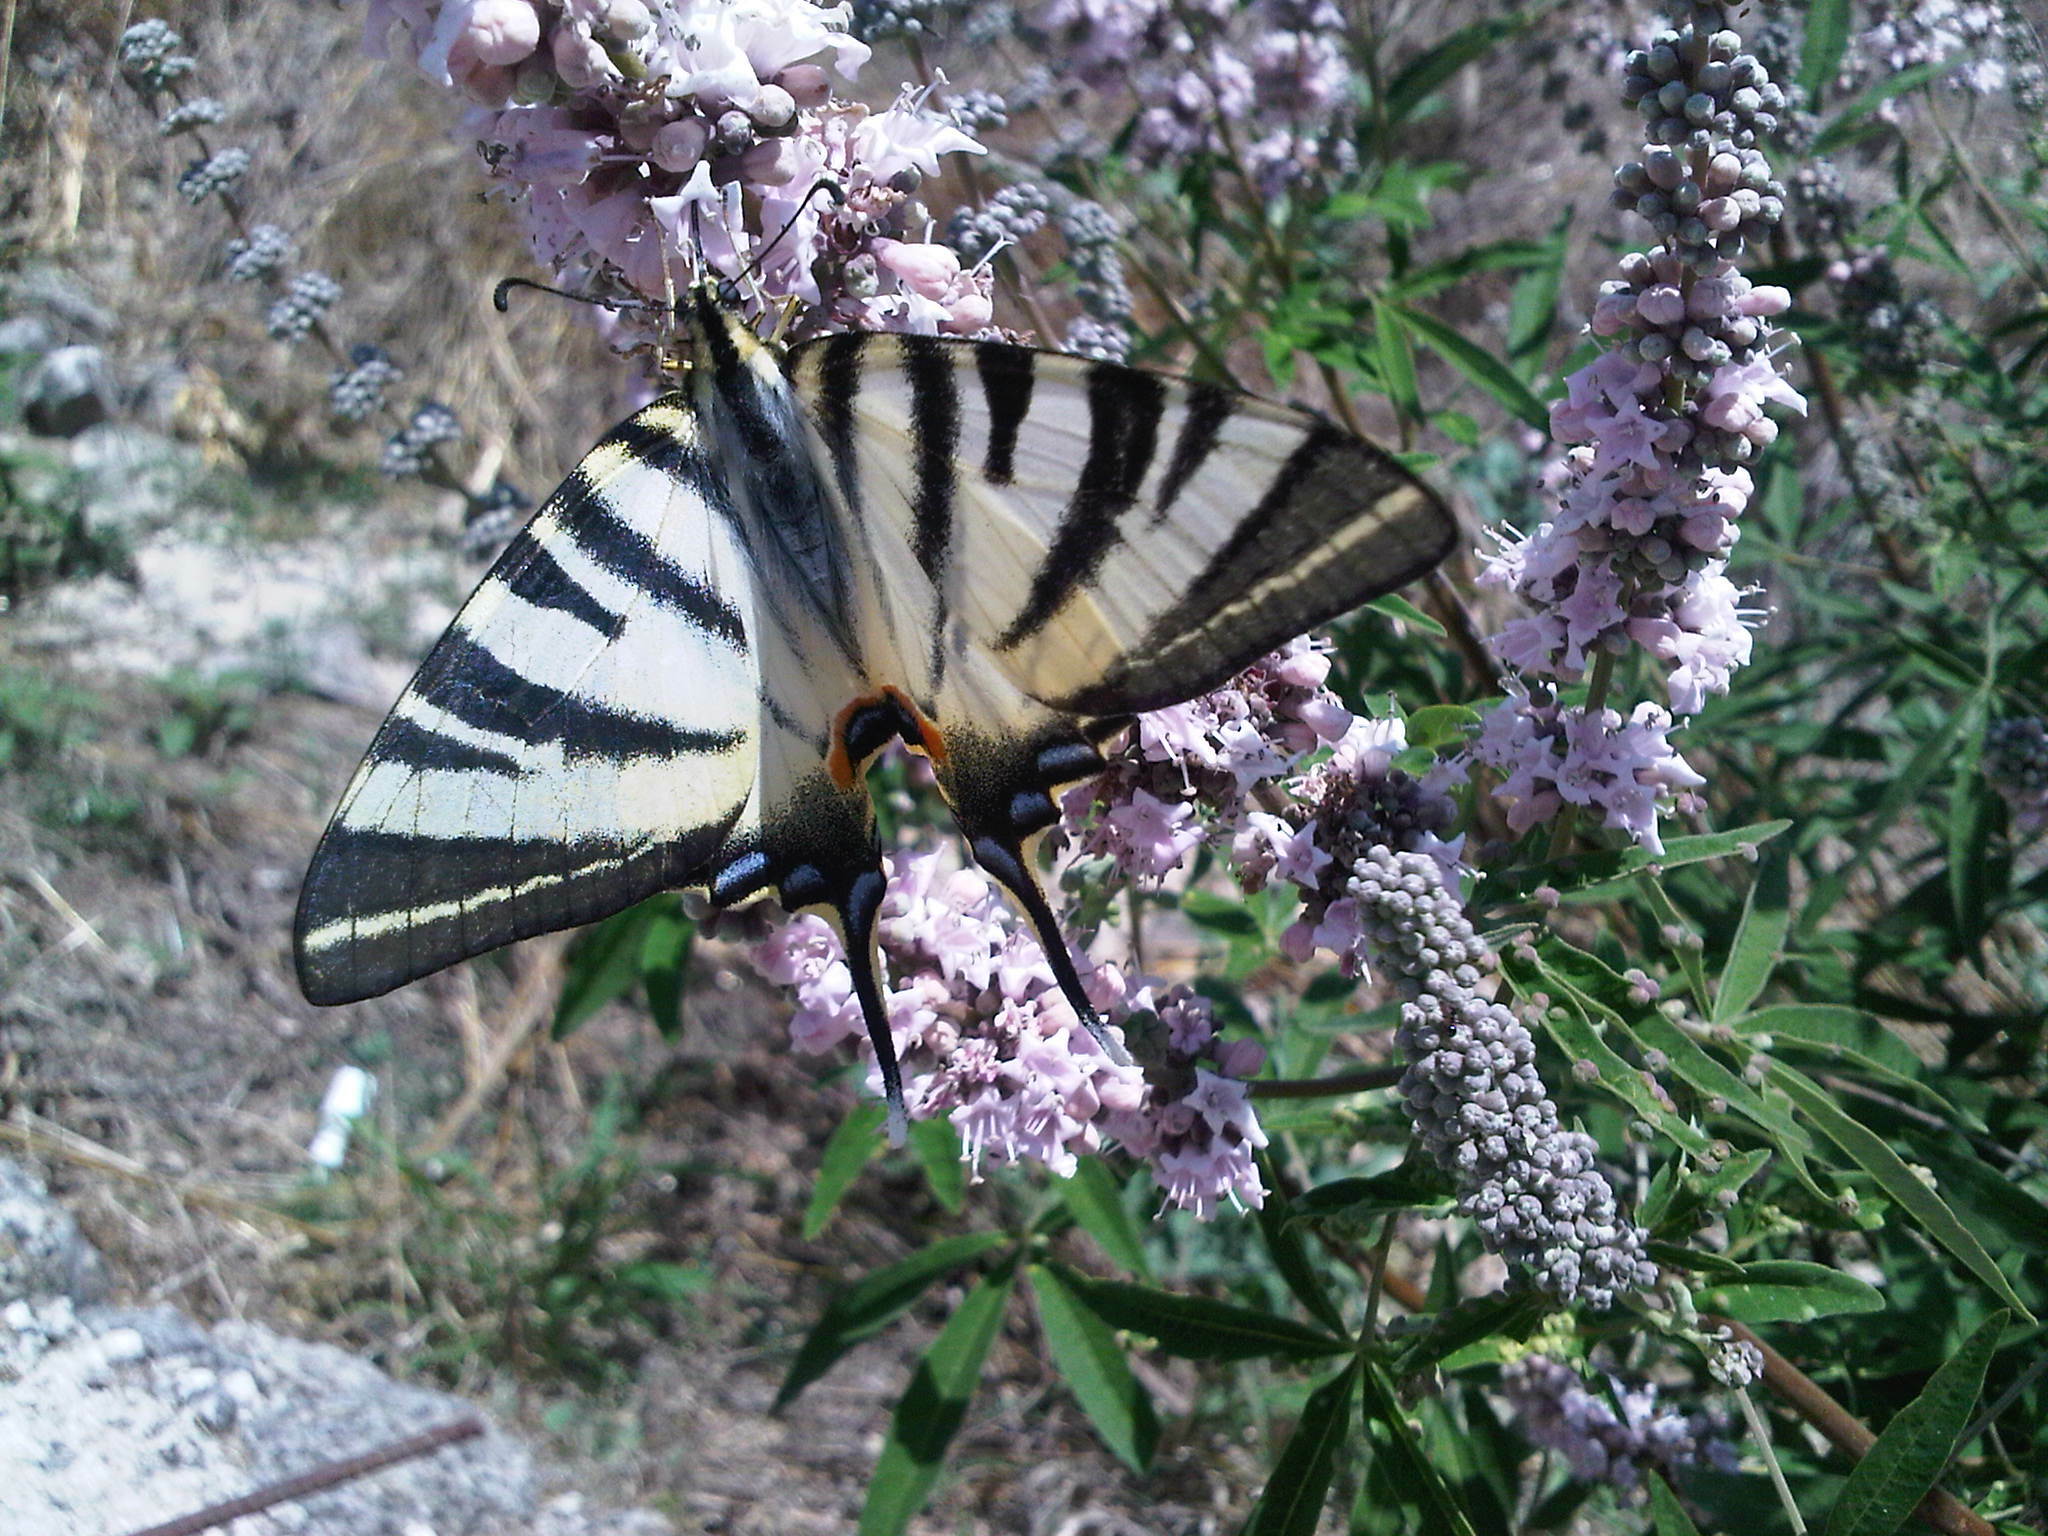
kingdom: Animalia
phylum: Arthropoda
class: Insecta
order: Lepidoptera
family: Papilionidae
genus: Iphiclides
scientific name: Iphiclides podalirius
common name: Scarce swallowtail
